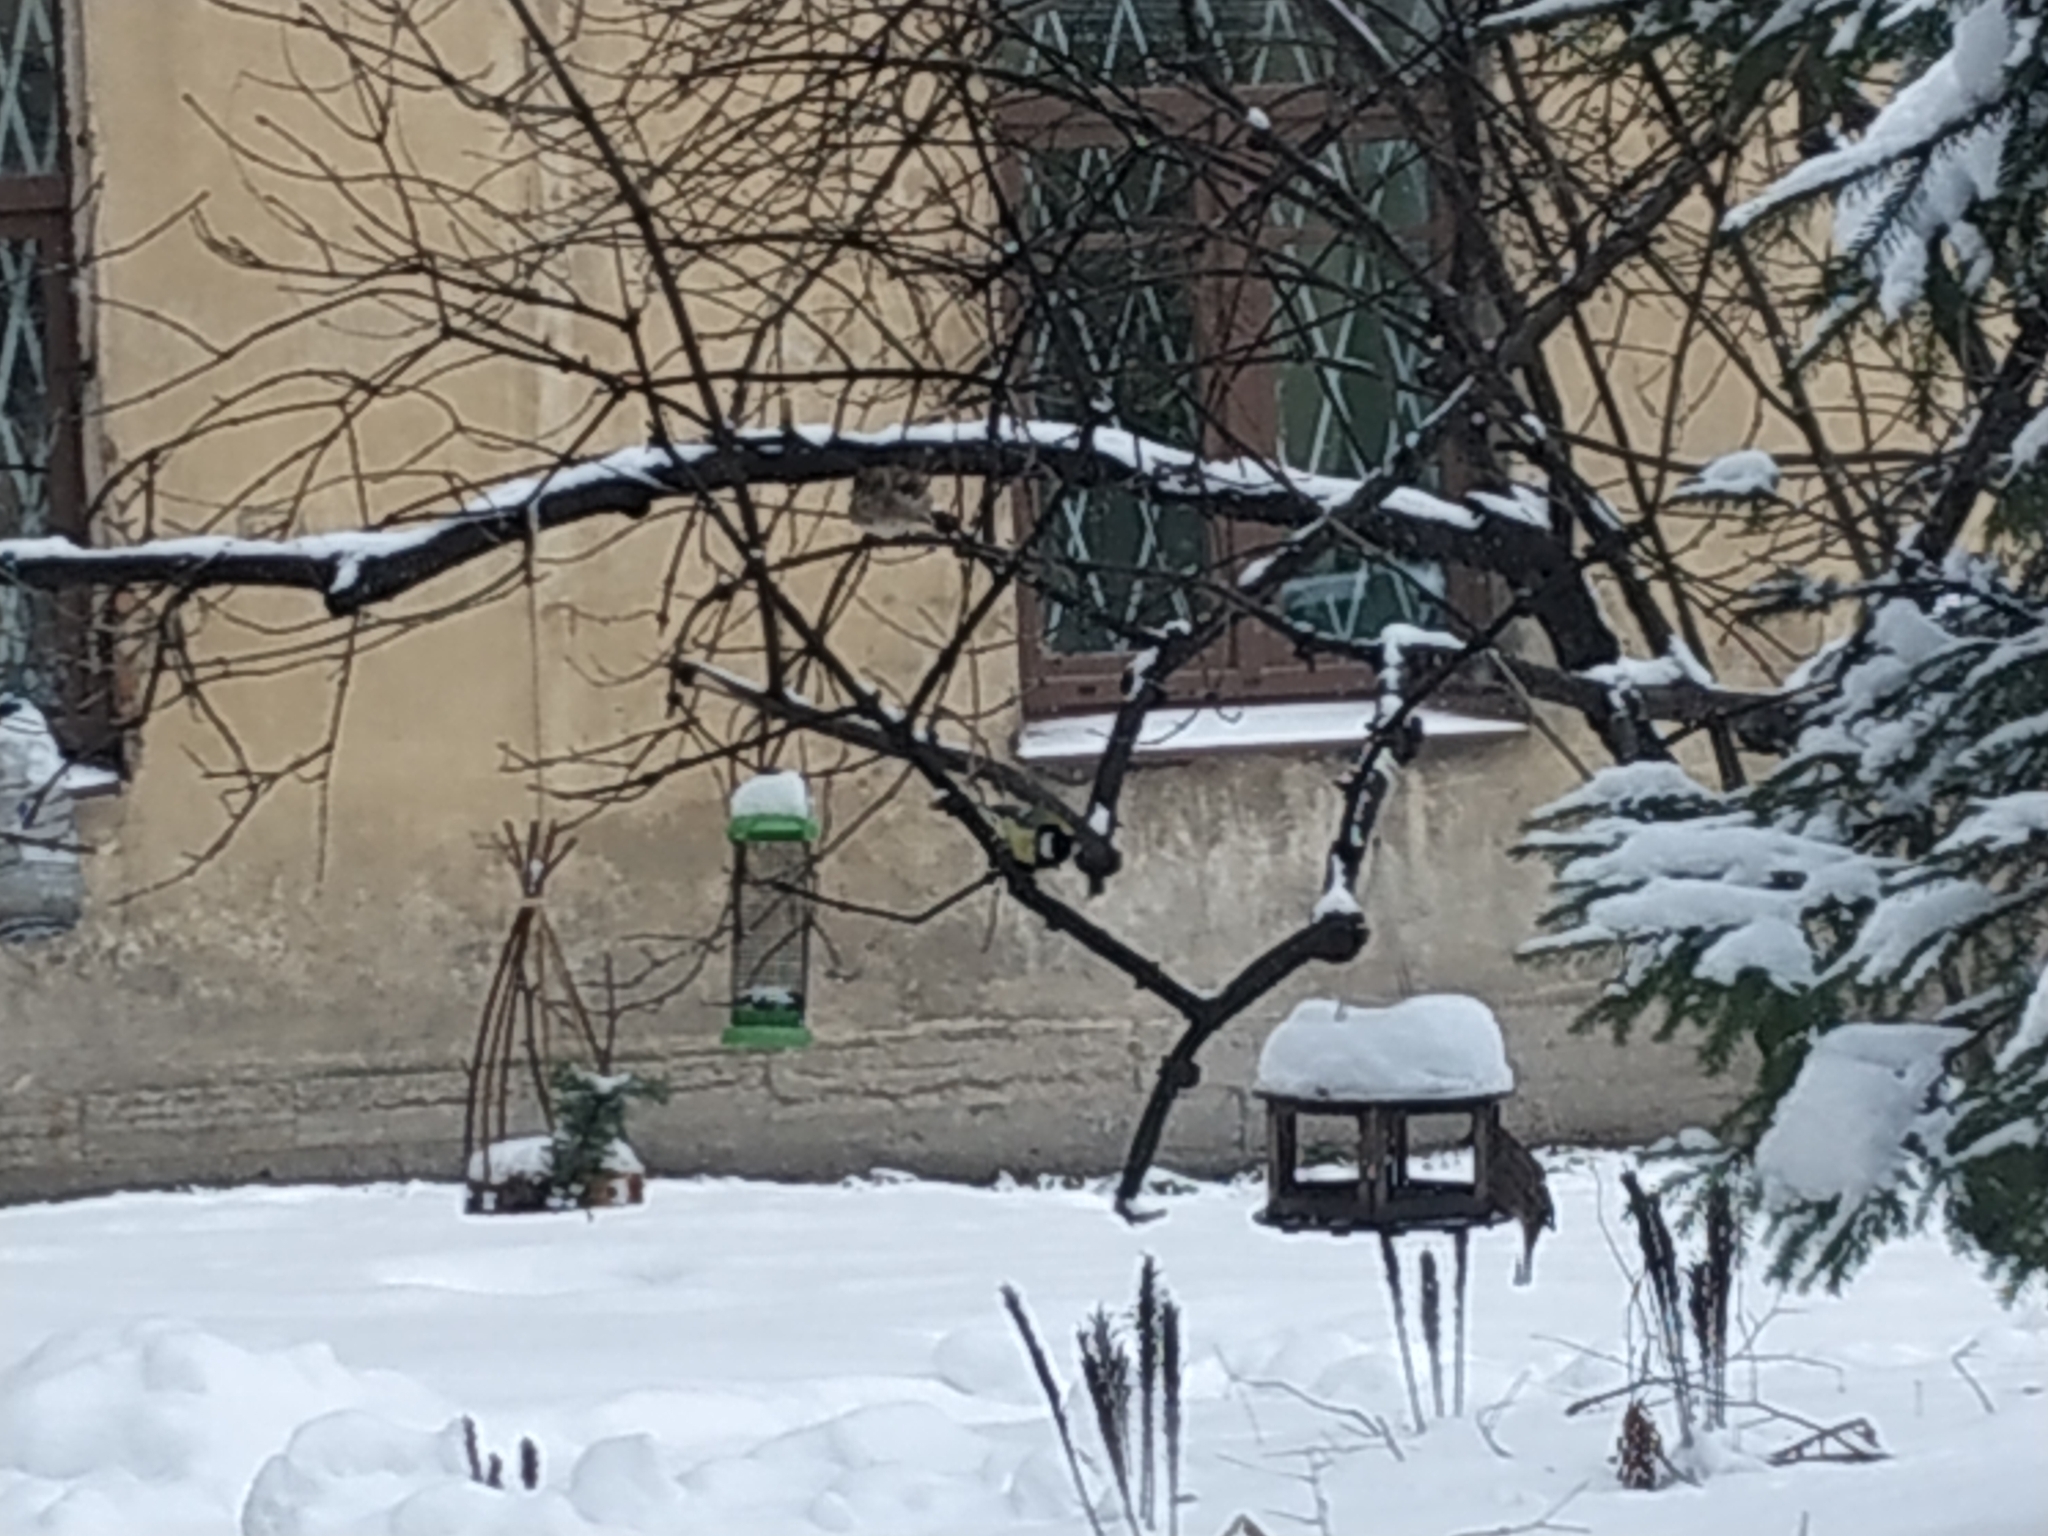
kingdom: Animalia
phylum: Chordata
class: Aves
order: Passeriformes
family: Paridae
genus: Parus
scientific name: Parus major
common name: Great tit
